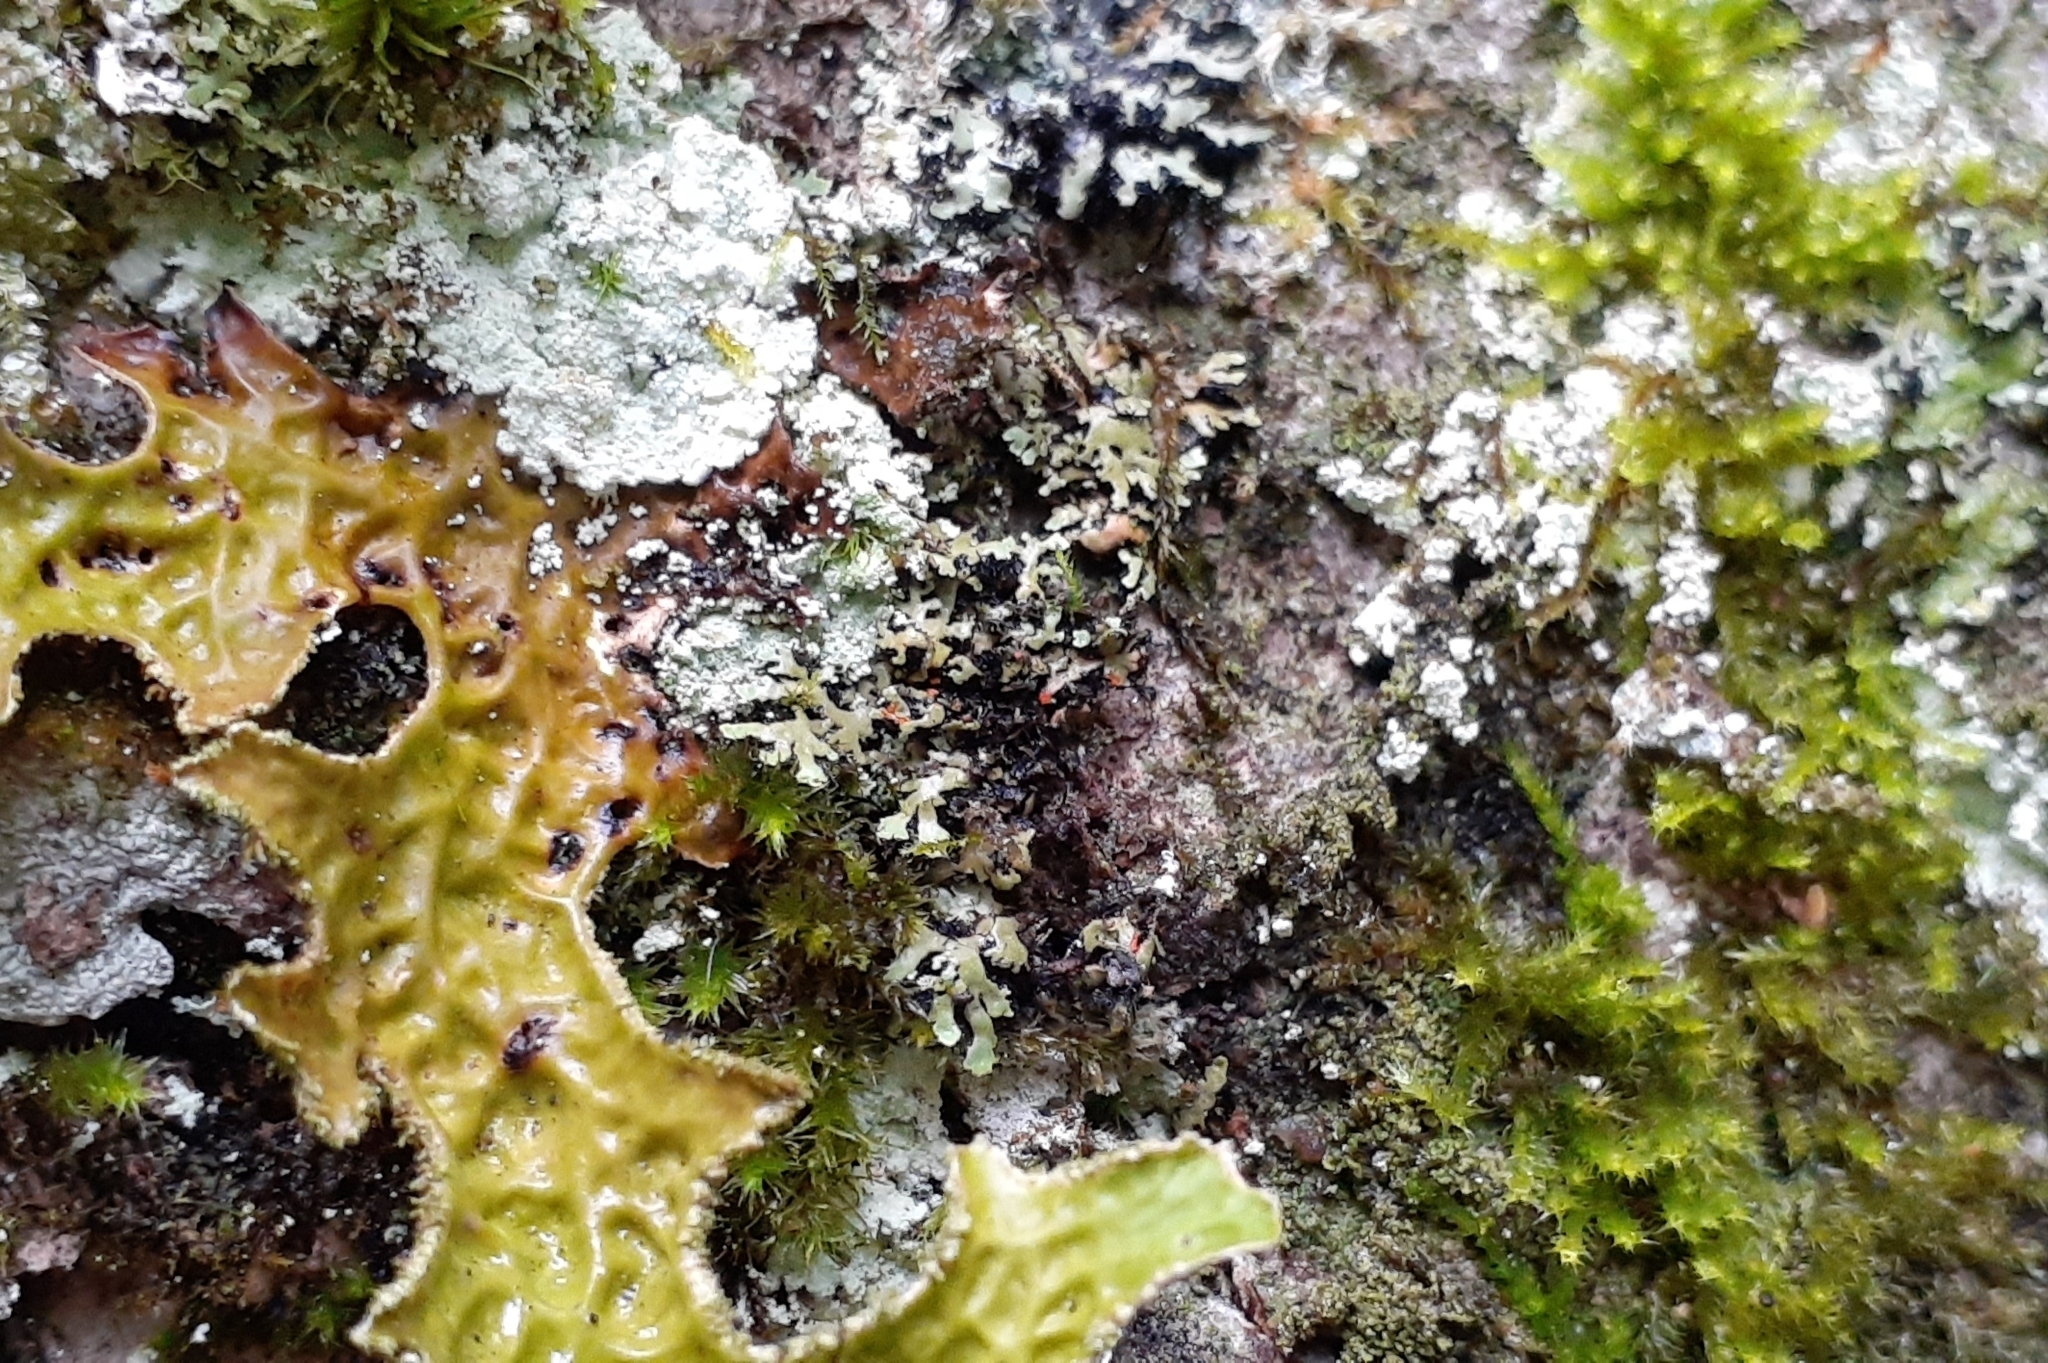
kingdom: Fungi
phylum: Ascomycota
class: Lecanoromycetes
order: Caliciales
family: Physciaceae
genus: Phaeophyscia
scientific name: Phaeophyscia rubropulchra
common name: Orange-cored shadow lichen
